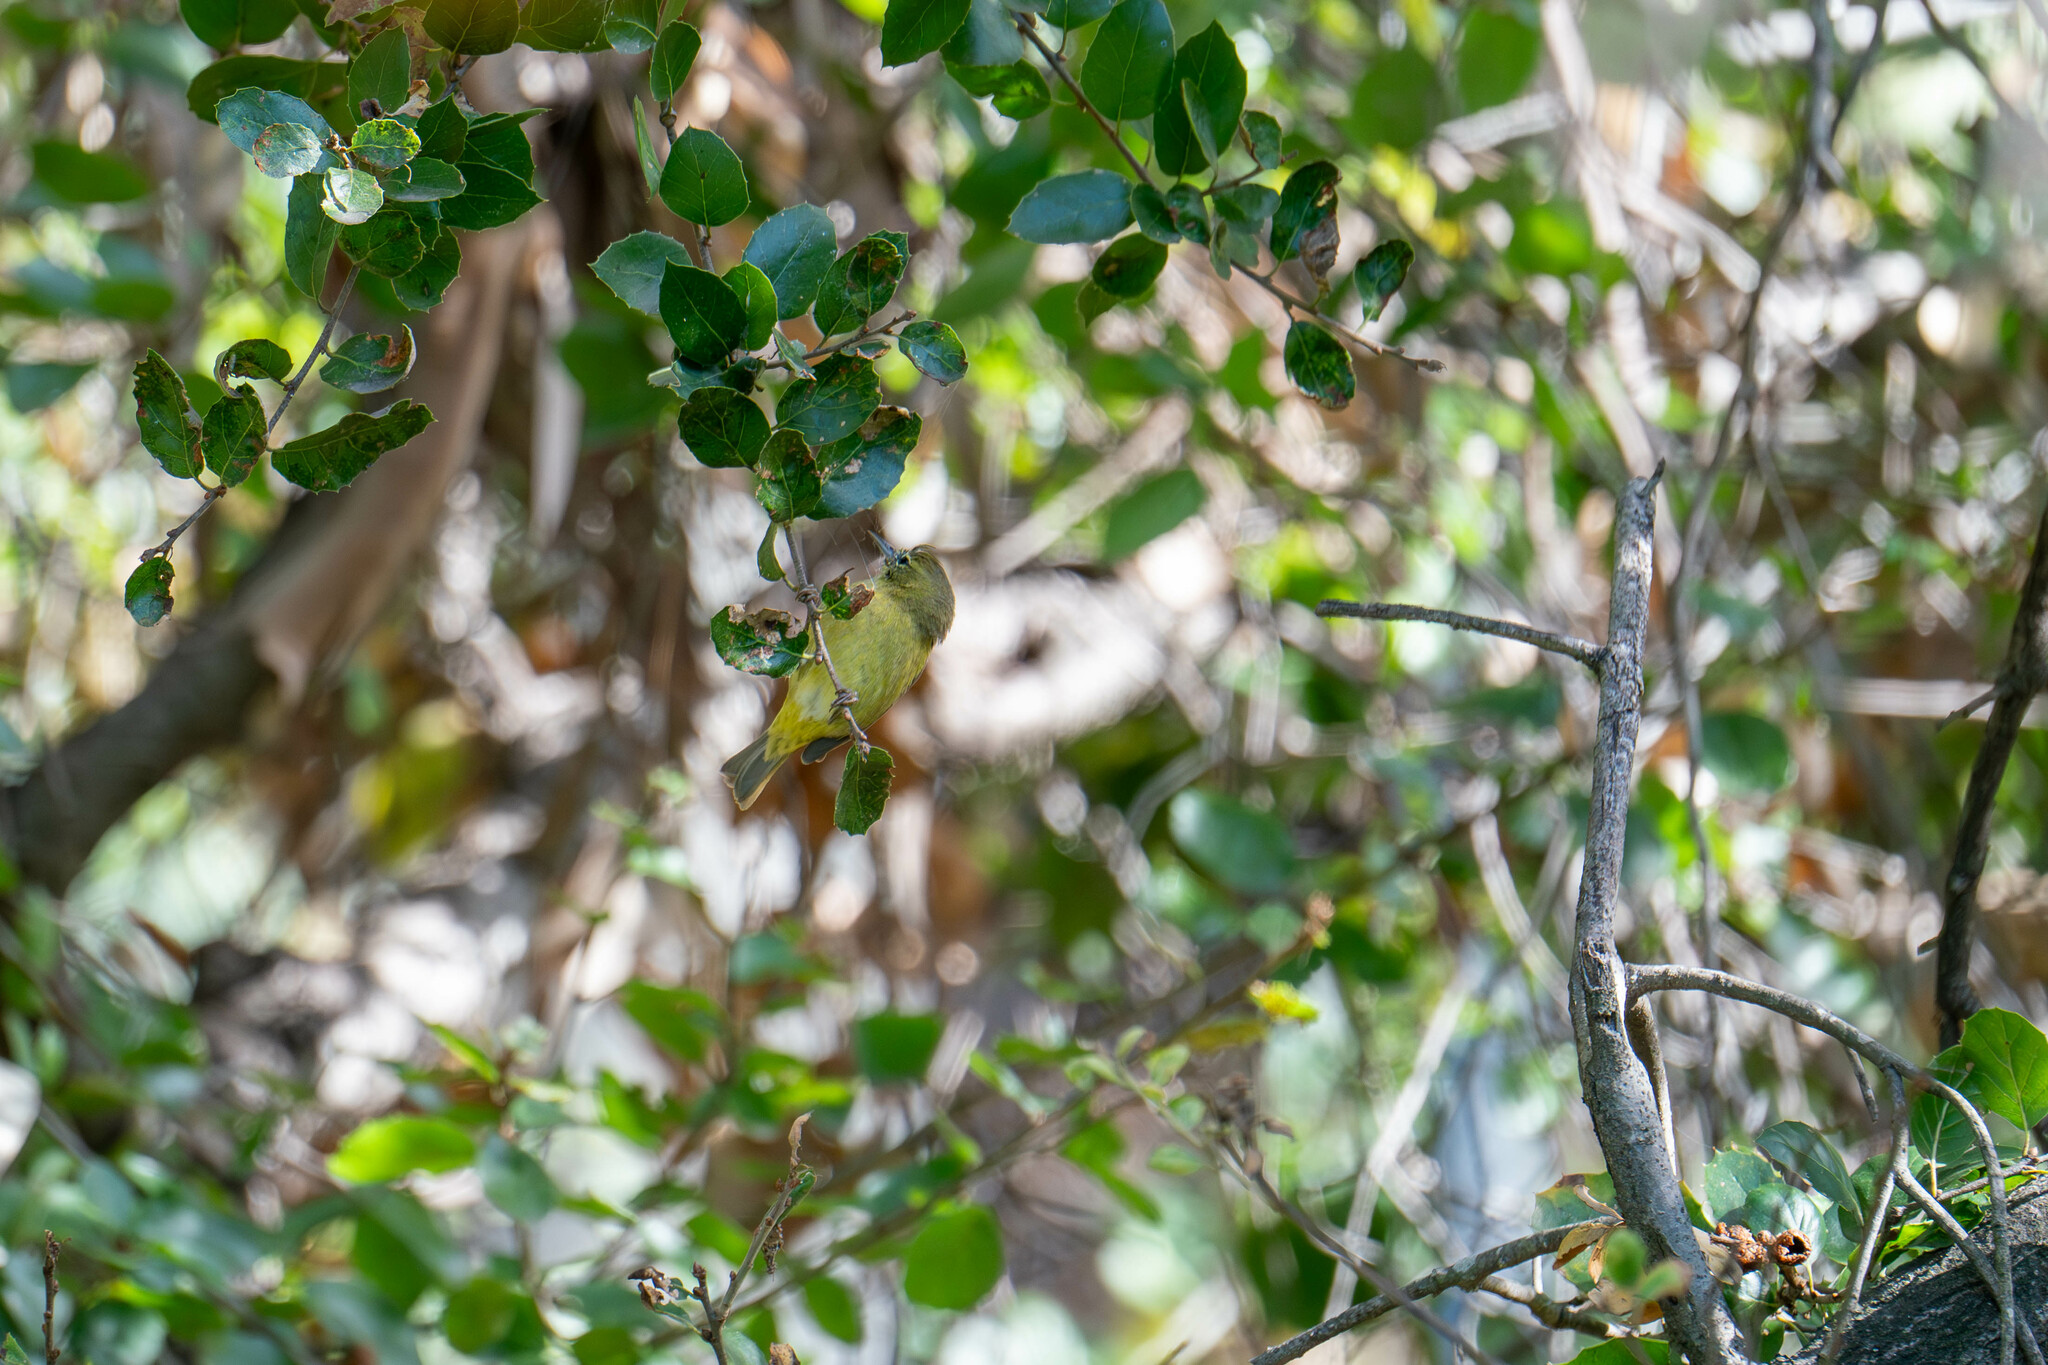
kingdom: Animalia
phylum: Chordata
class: Aves
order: Passeriformes
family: Parulidae
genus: Leiothlypis
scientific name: Leiothlypis celata
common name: Orange-crowned warbler
